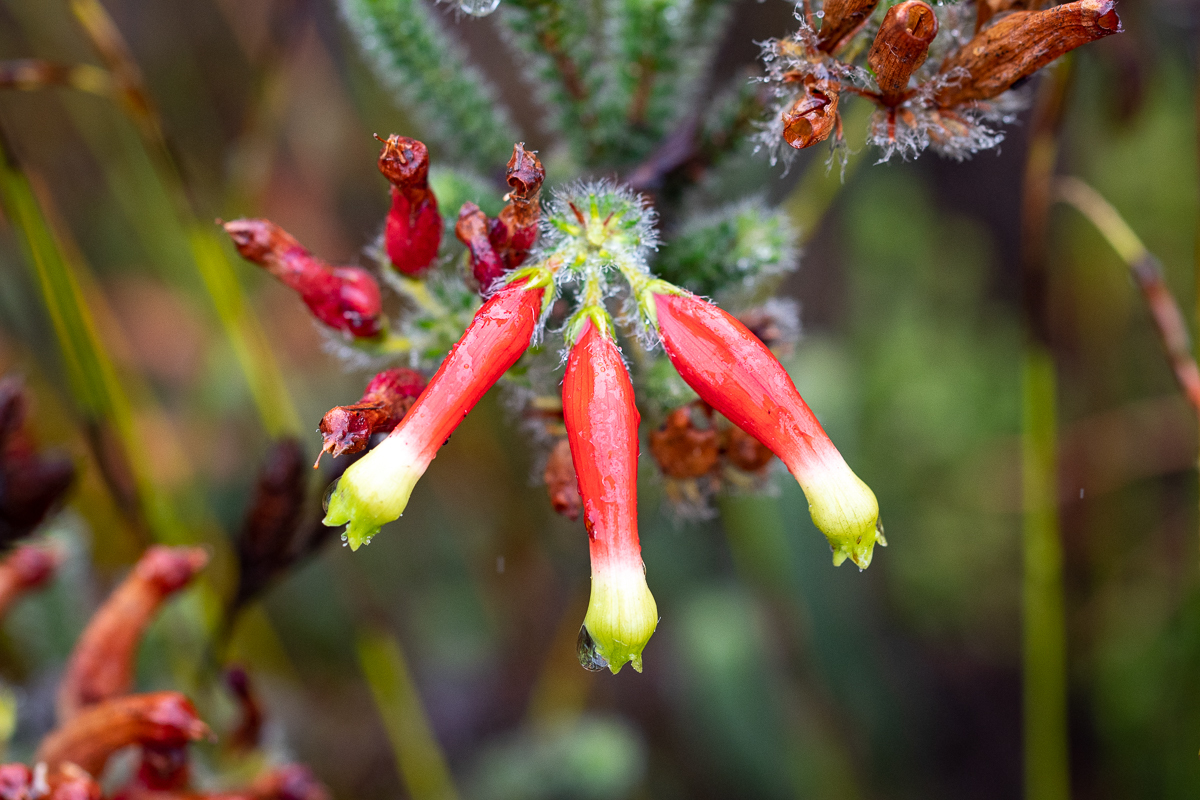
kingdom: Plantae
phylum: Tracheophyta
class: Magnoliopsida
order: Ericales
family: Ericaceae
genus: Erica
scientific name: Erica massonii
